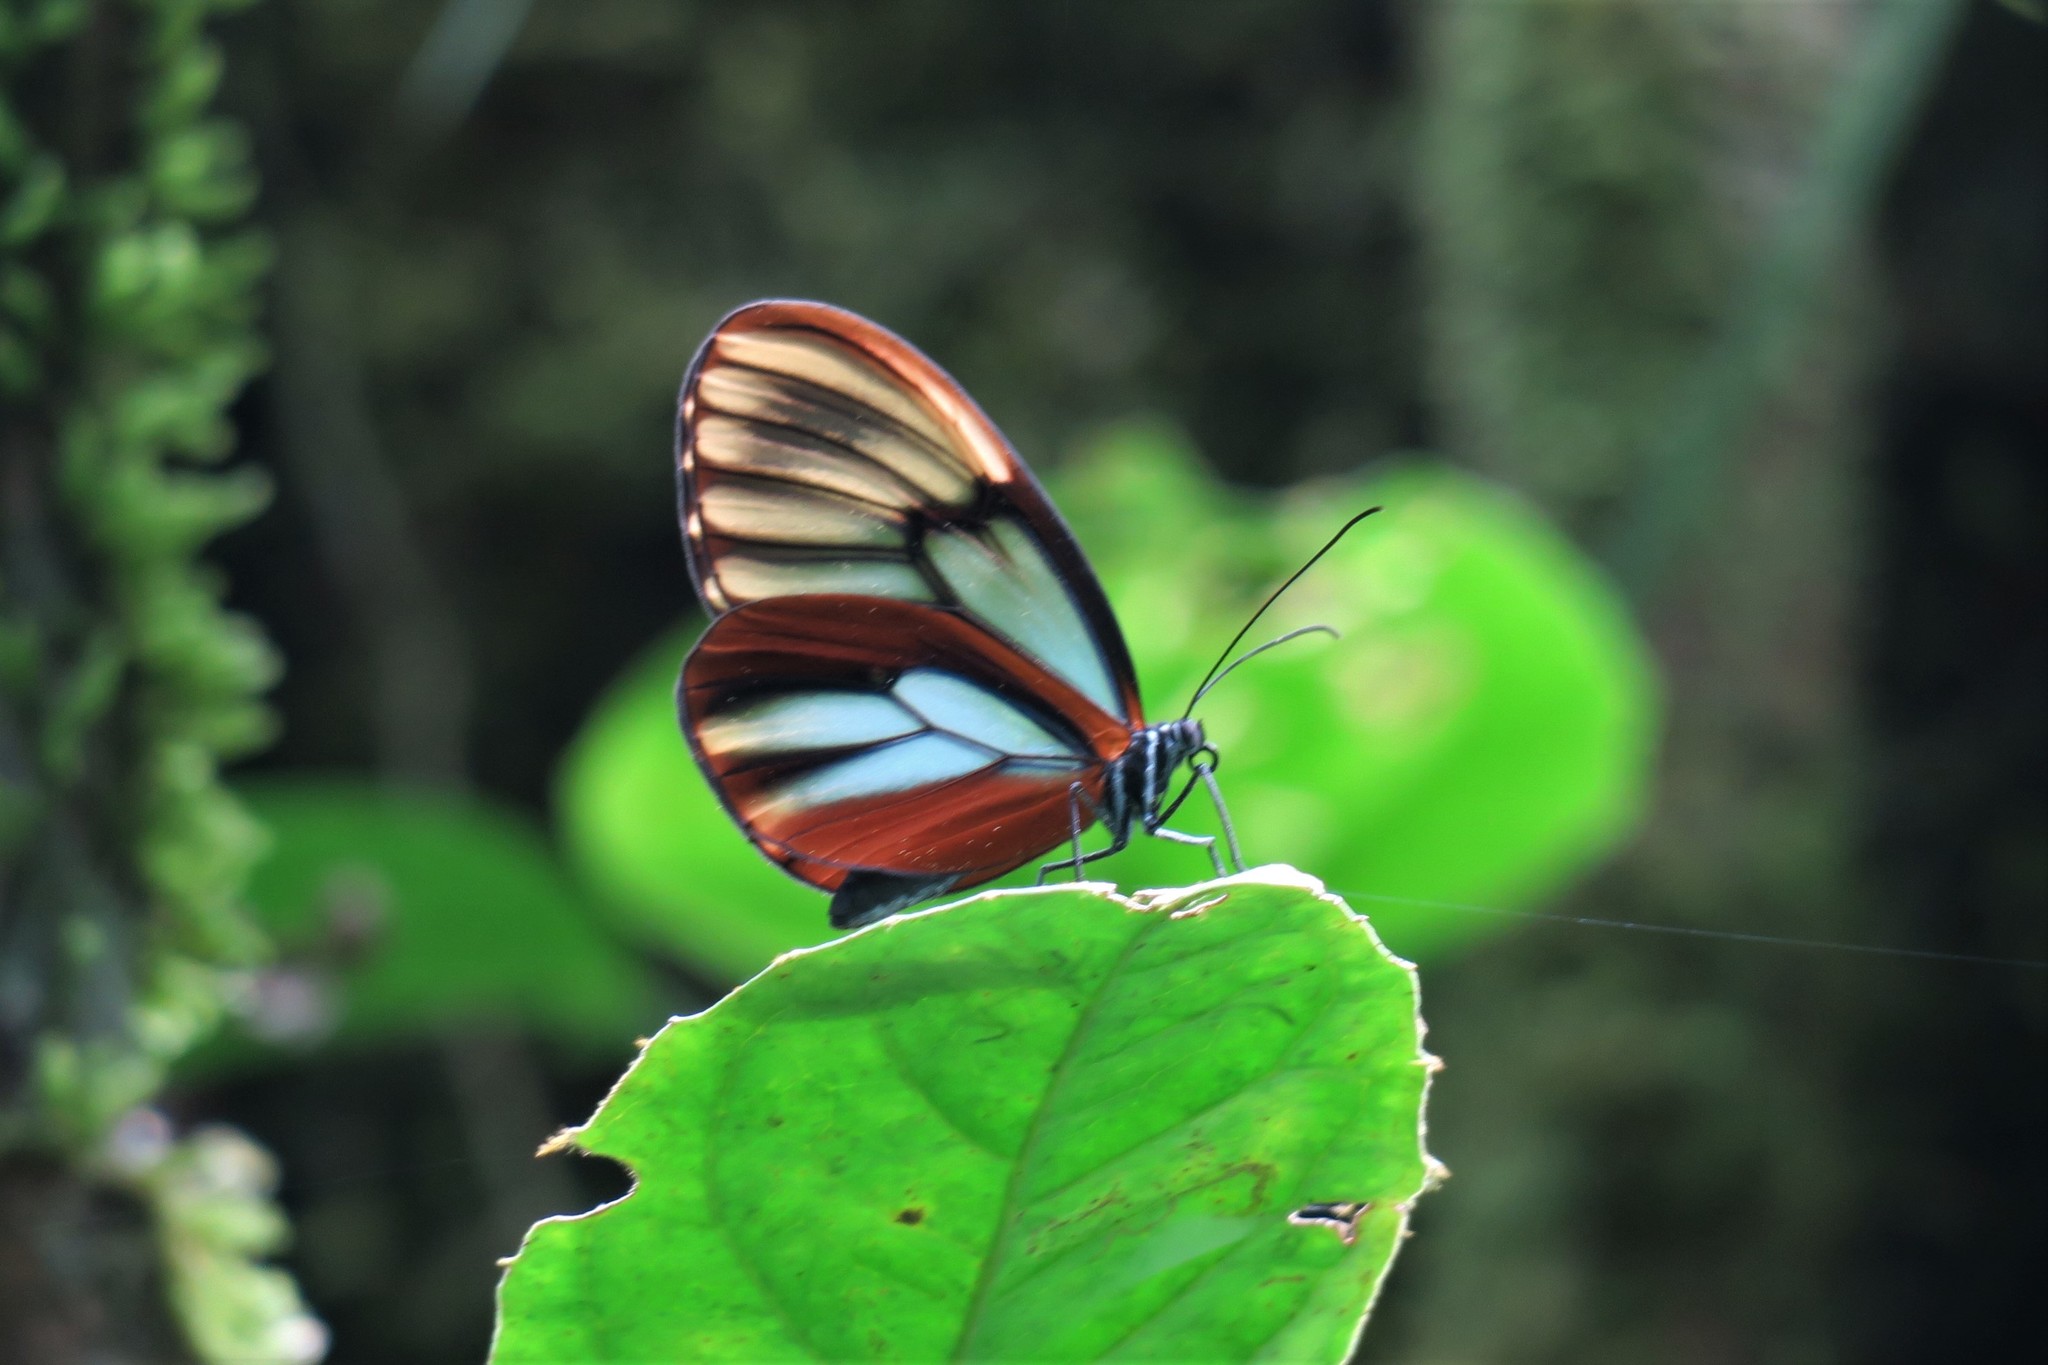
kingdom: Animalia
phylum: Arthropoda
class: Insecta
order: Lepidoptera
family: Nymphalidae
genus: Godyris
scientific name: Godyris duillia
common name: Dazzling glasswing
